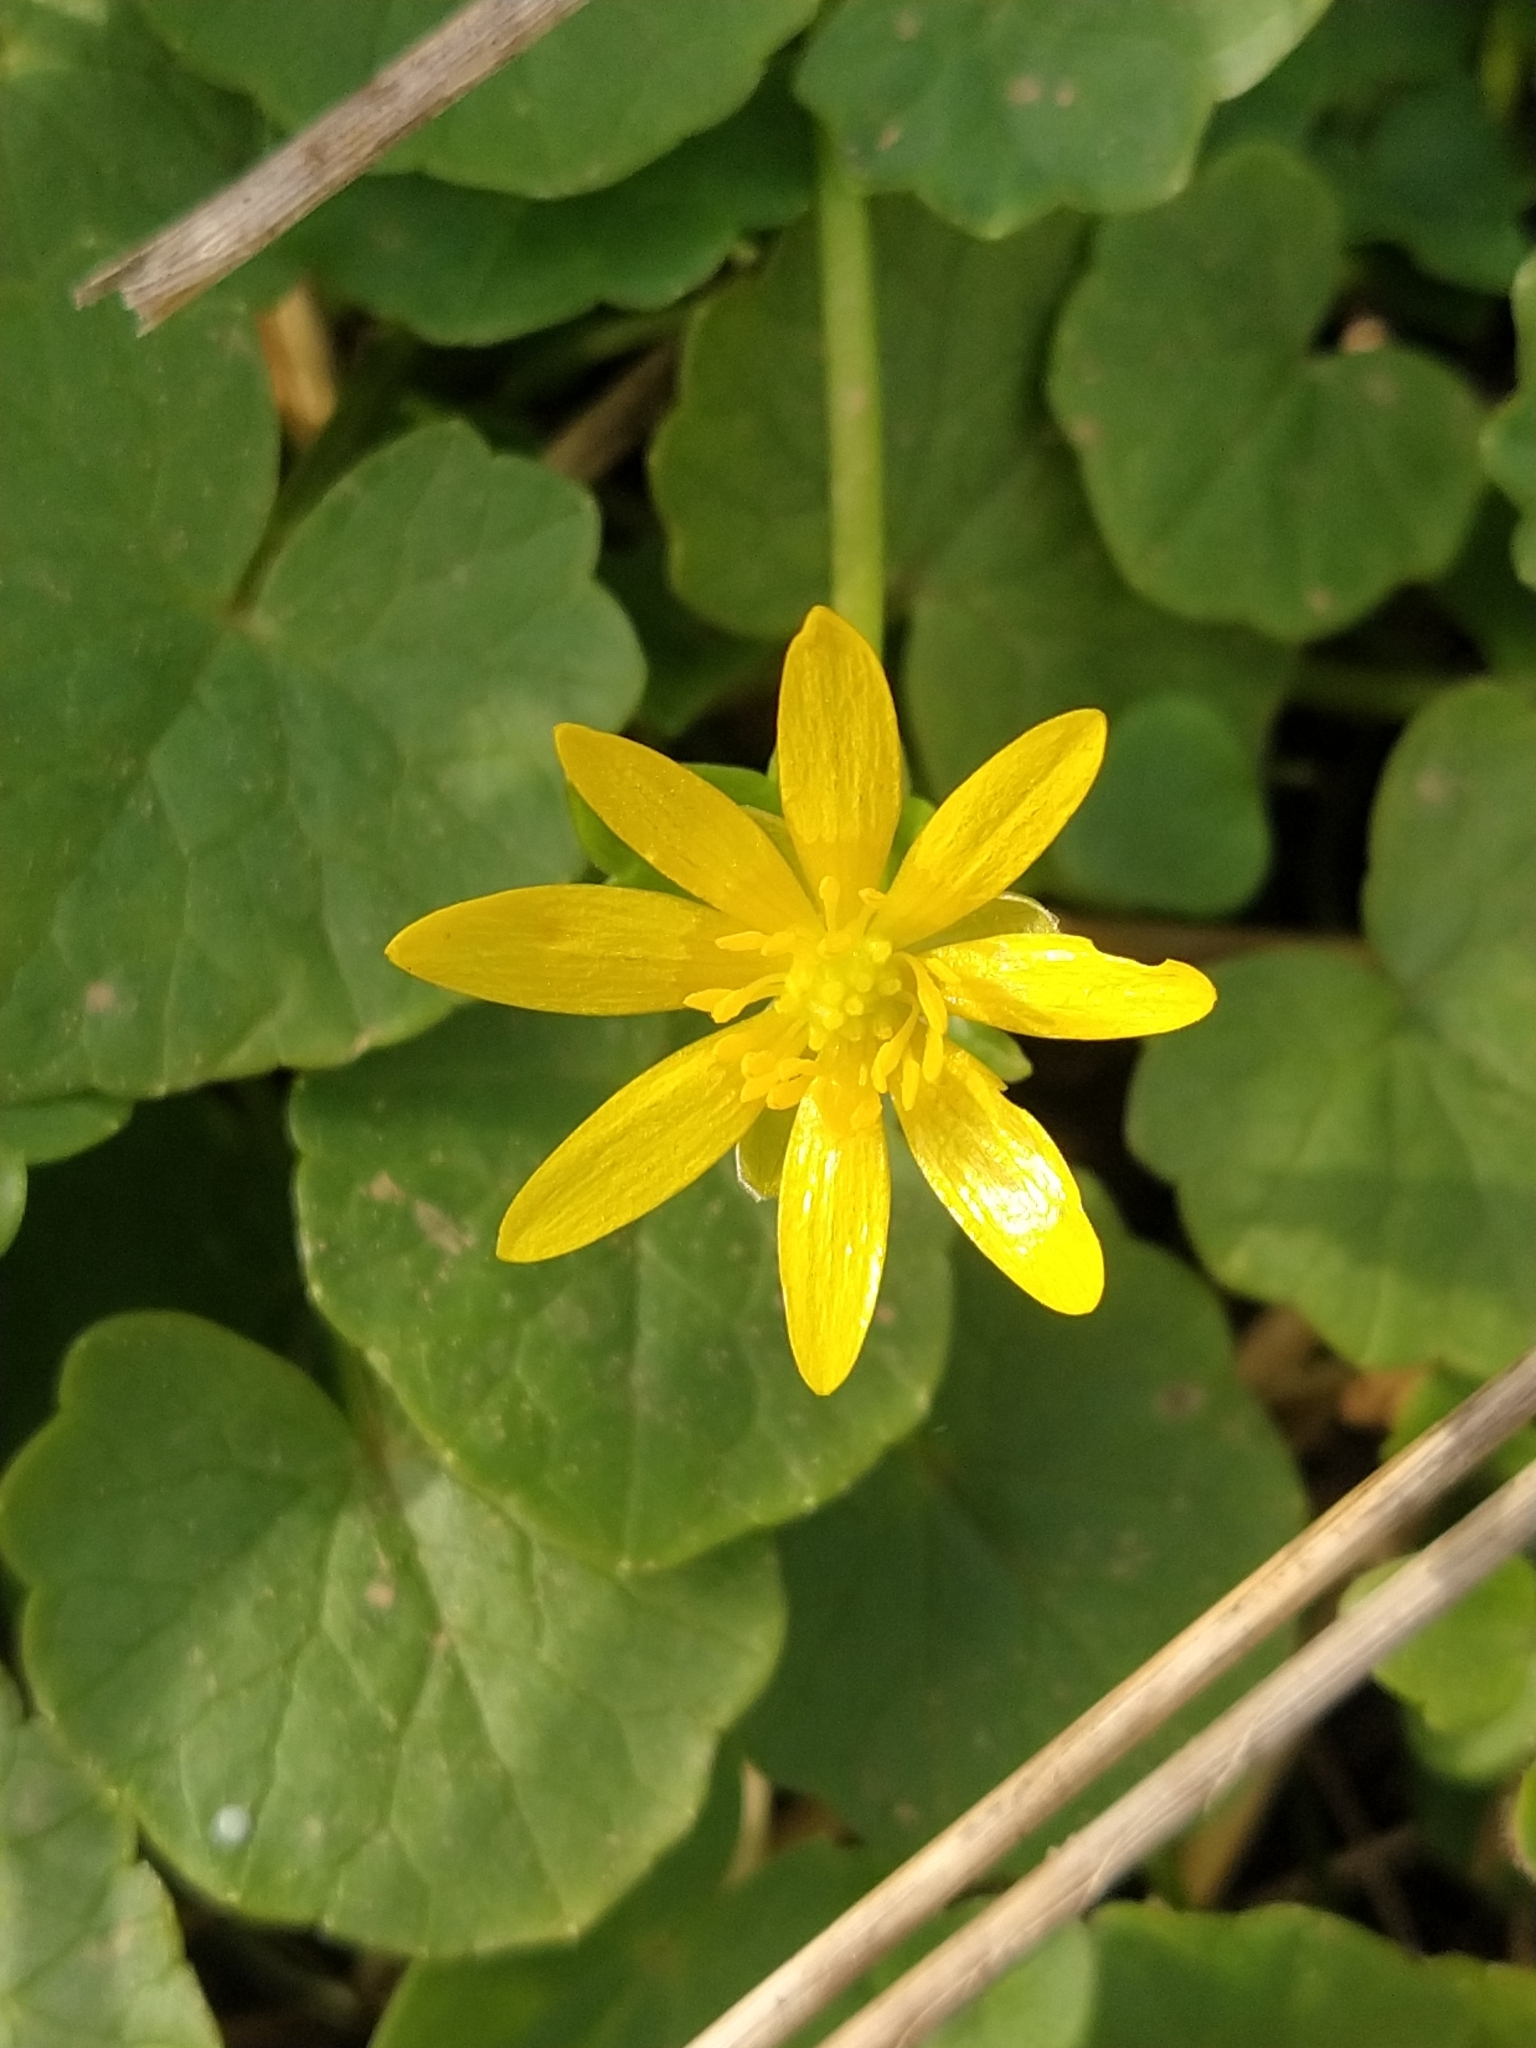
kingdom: Plantae
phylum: Tracheophyta
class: Magnoliopsida
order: Ranunculales
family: Ranunculaceae
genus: Ficaria
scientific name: Ficaria verna
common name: Lesser celandine
